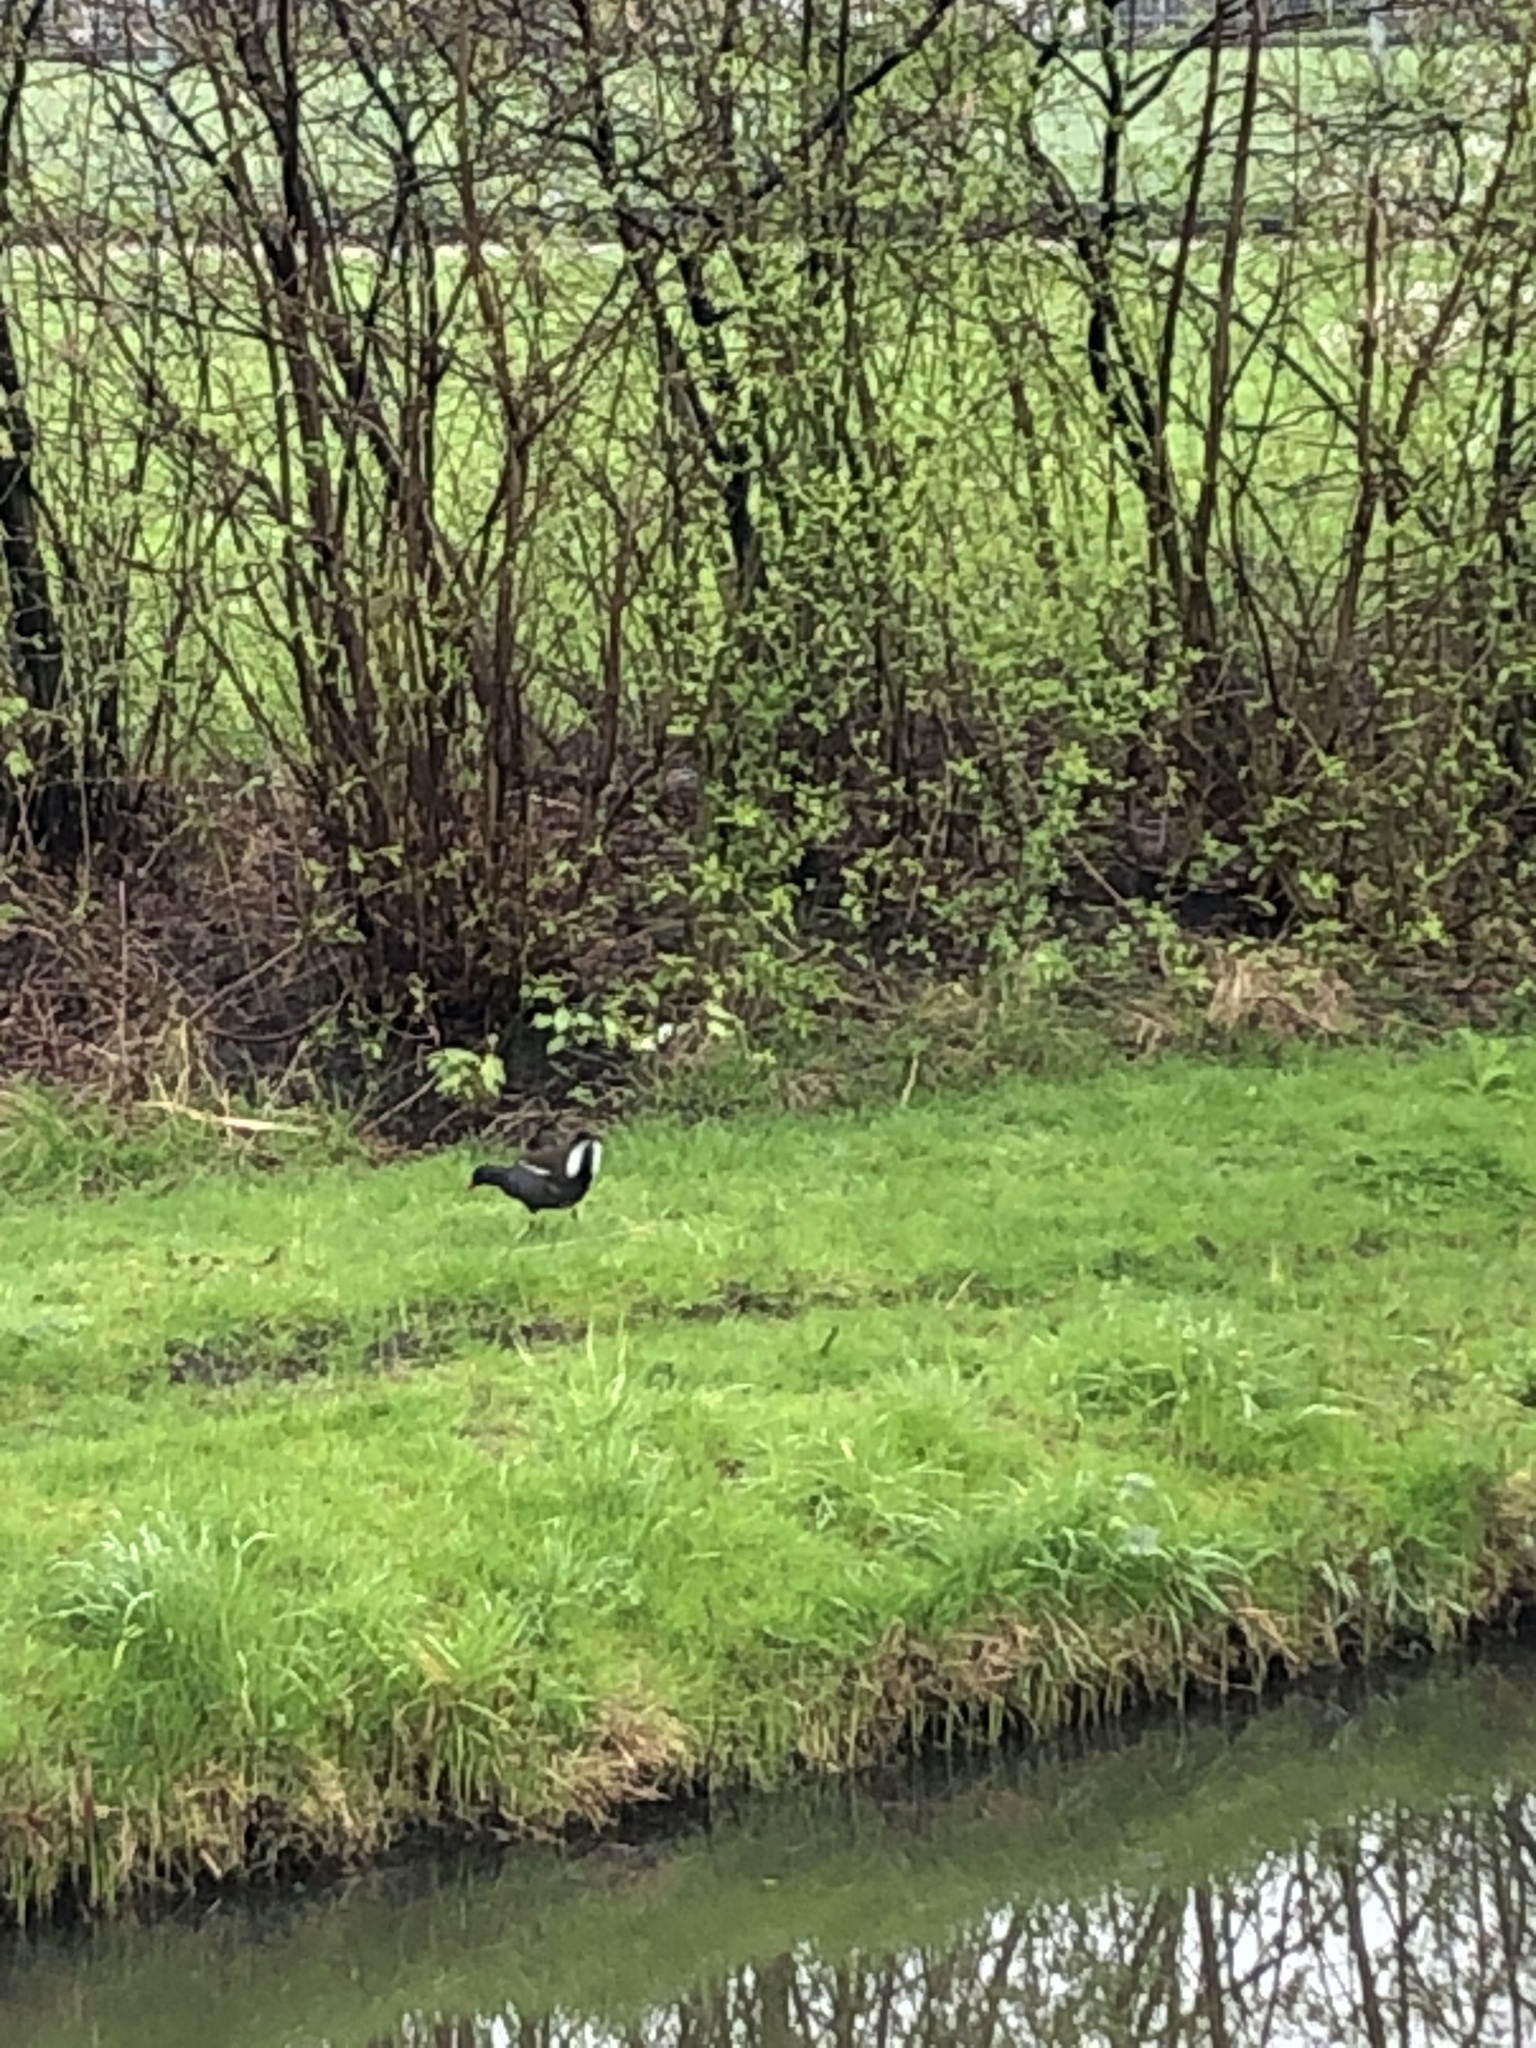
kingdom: Animalia
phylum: Chordata
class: Aves
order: Gruiformes
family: Rallidae
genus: Gallinula
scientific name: Gallinula chloropus
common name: Common moorhen
